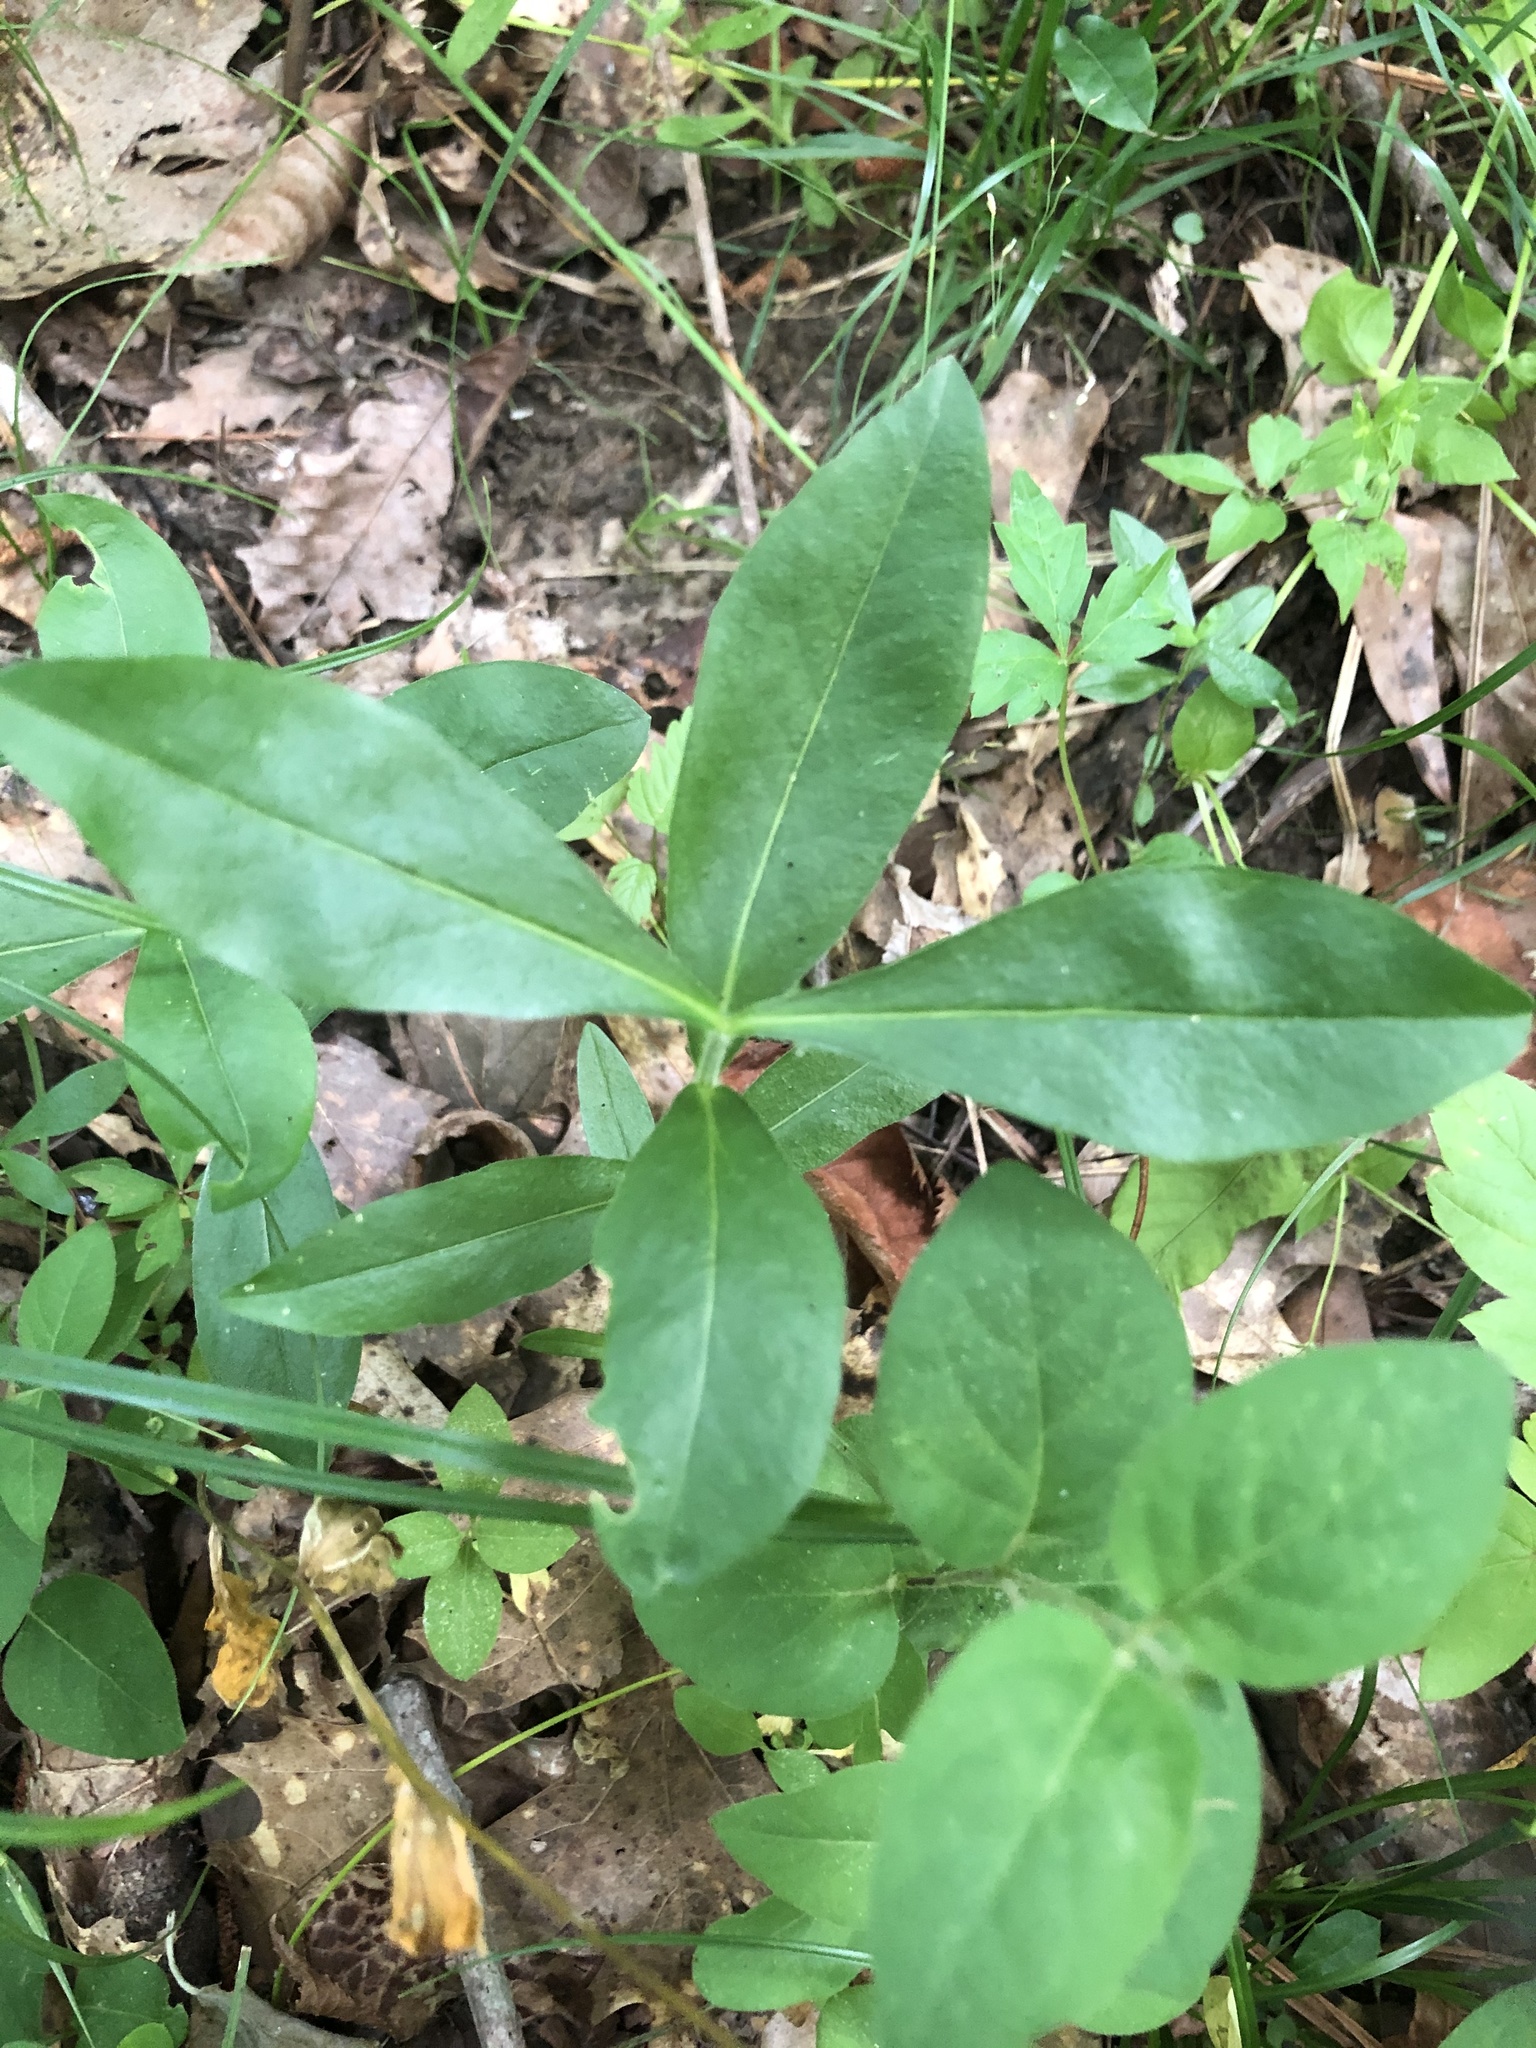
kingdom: Plantae
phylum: Tracheophyta
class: Magnoliopsida
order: Ericales
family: Polemoniaceae
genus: Phlox
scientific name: Phlox divaricata
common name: Blue phlox
